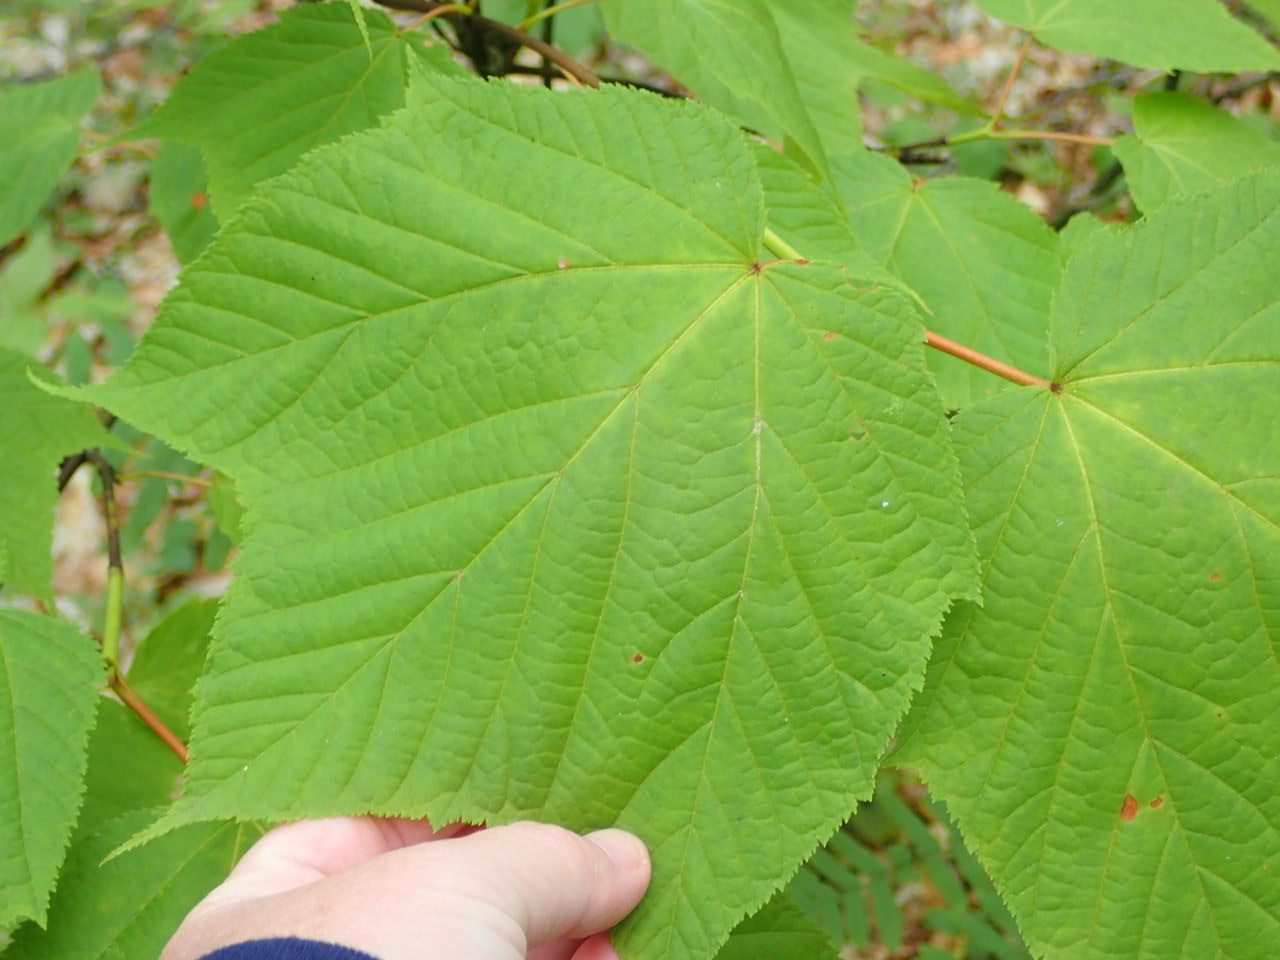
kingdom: Plantae
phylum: Tracheophyta
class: Magnoliopsida
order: Sapindales
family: Sapindaceae
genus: Acer
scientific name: Acer pensylvanicum
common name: Moosewood
